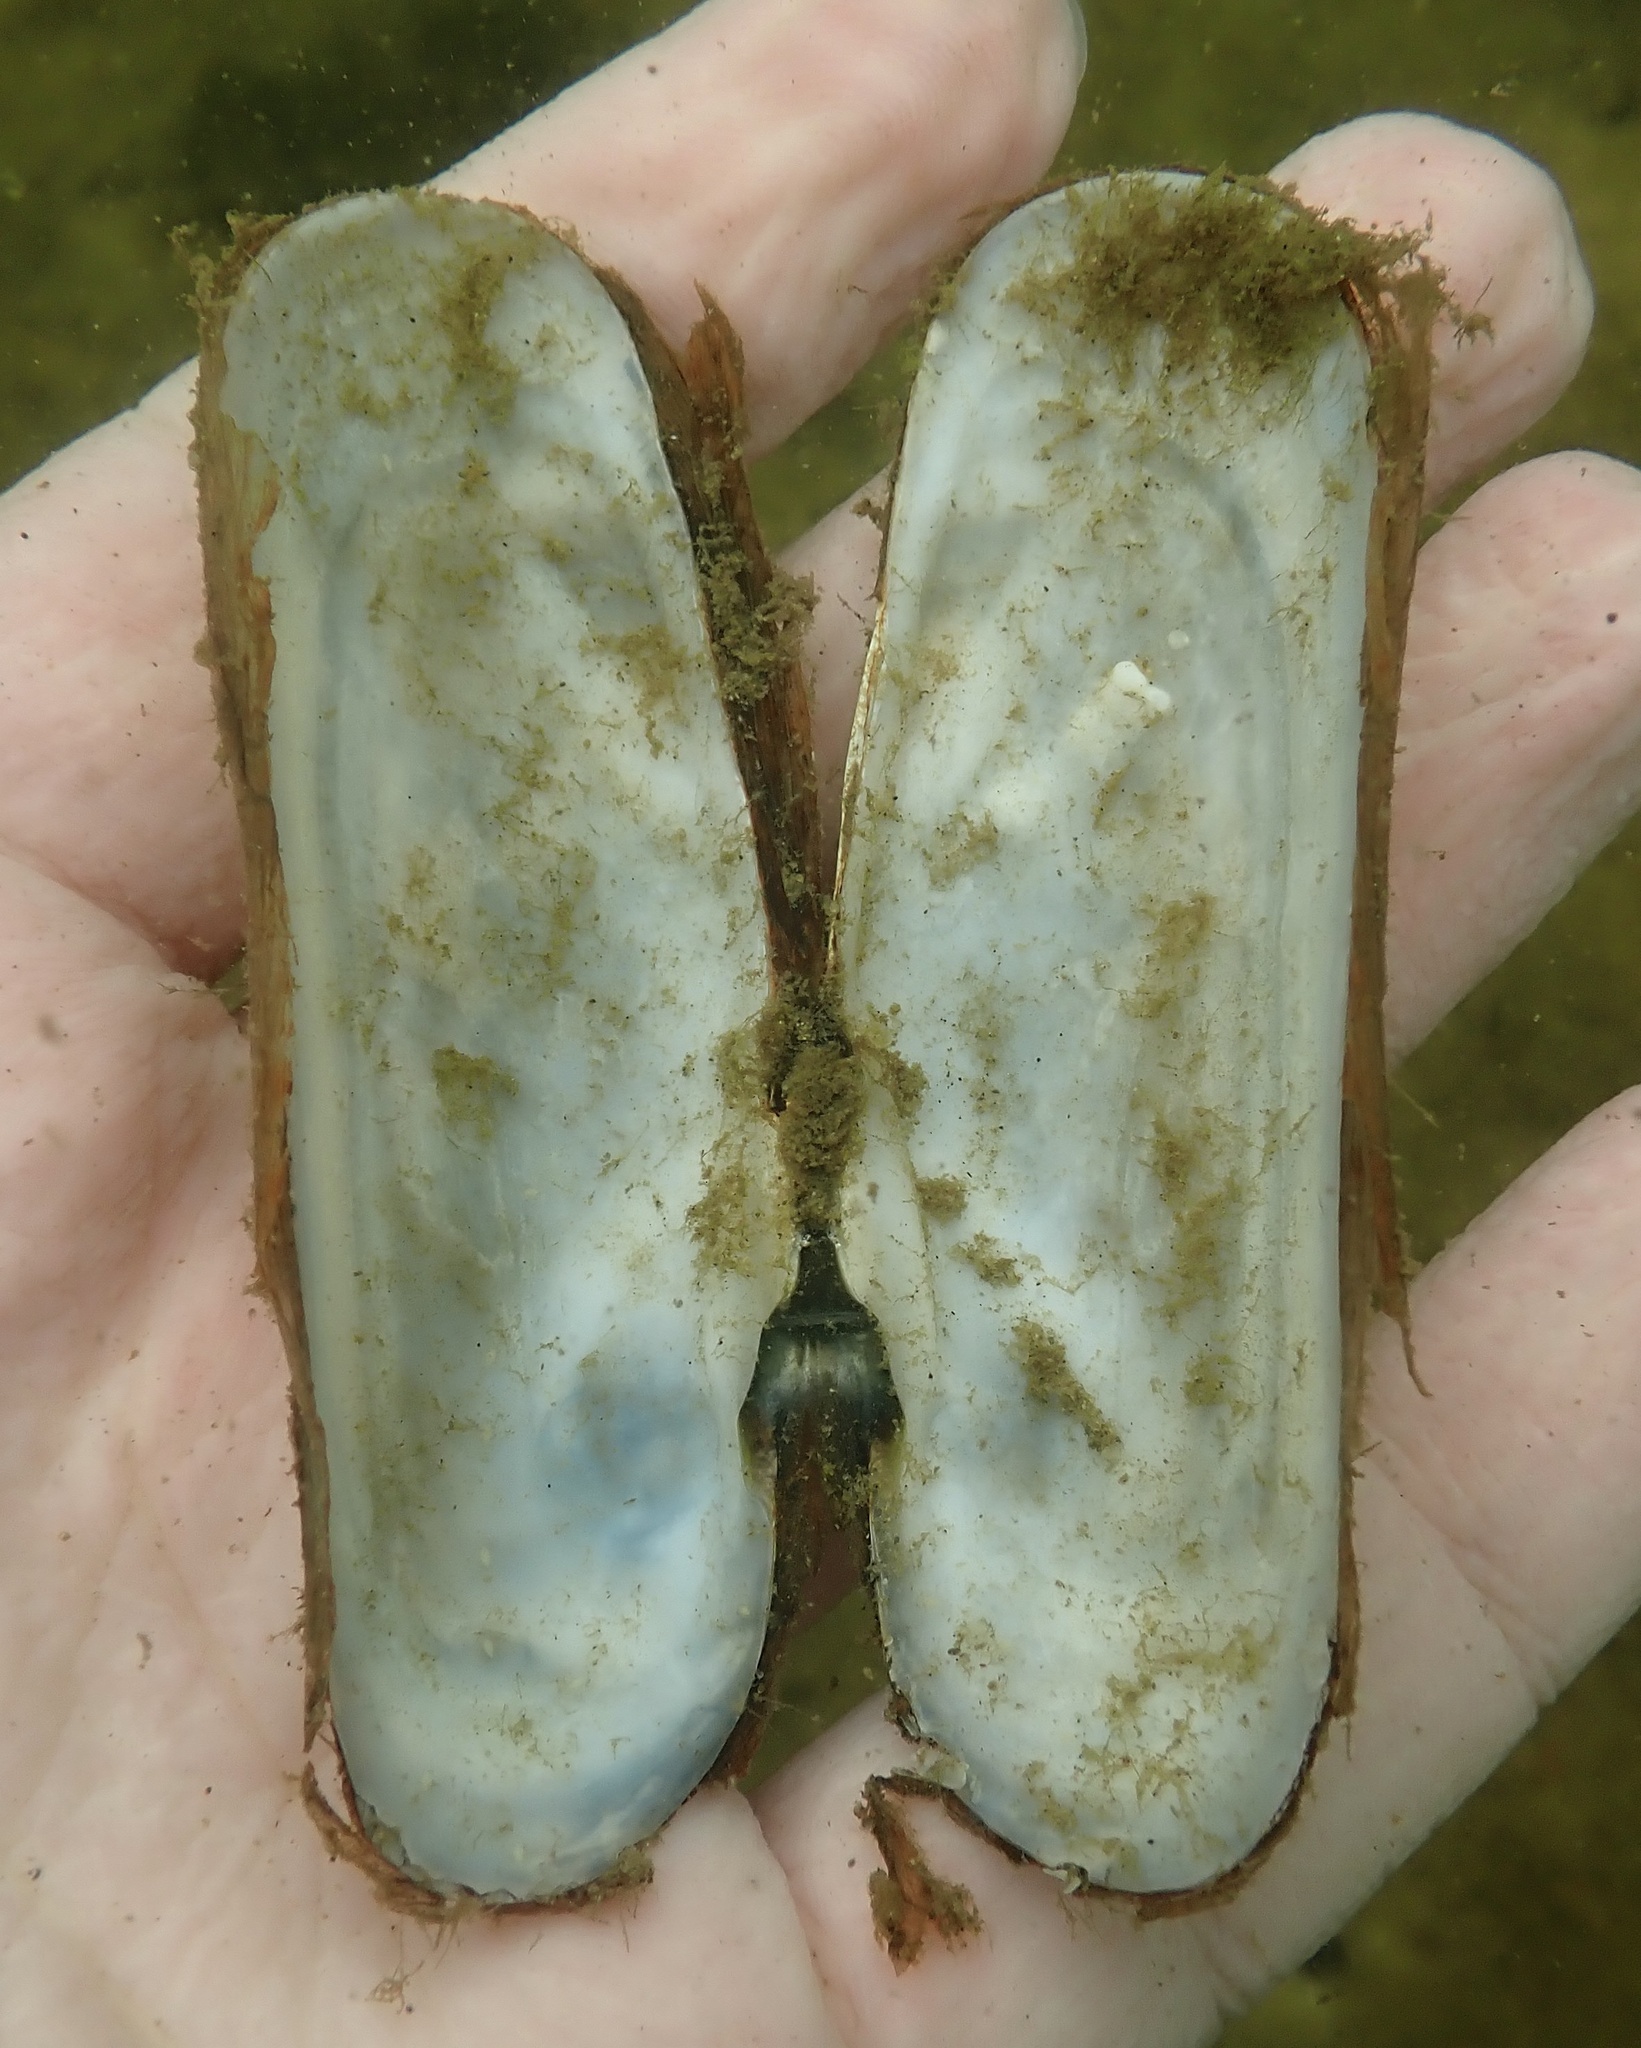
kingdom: Animalia
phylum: Mollusca
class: Bivalvia
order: Cardiida
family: Solecurtidae
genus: Tagelus
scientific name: Tagelus plebeius
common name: Stout tagelus
